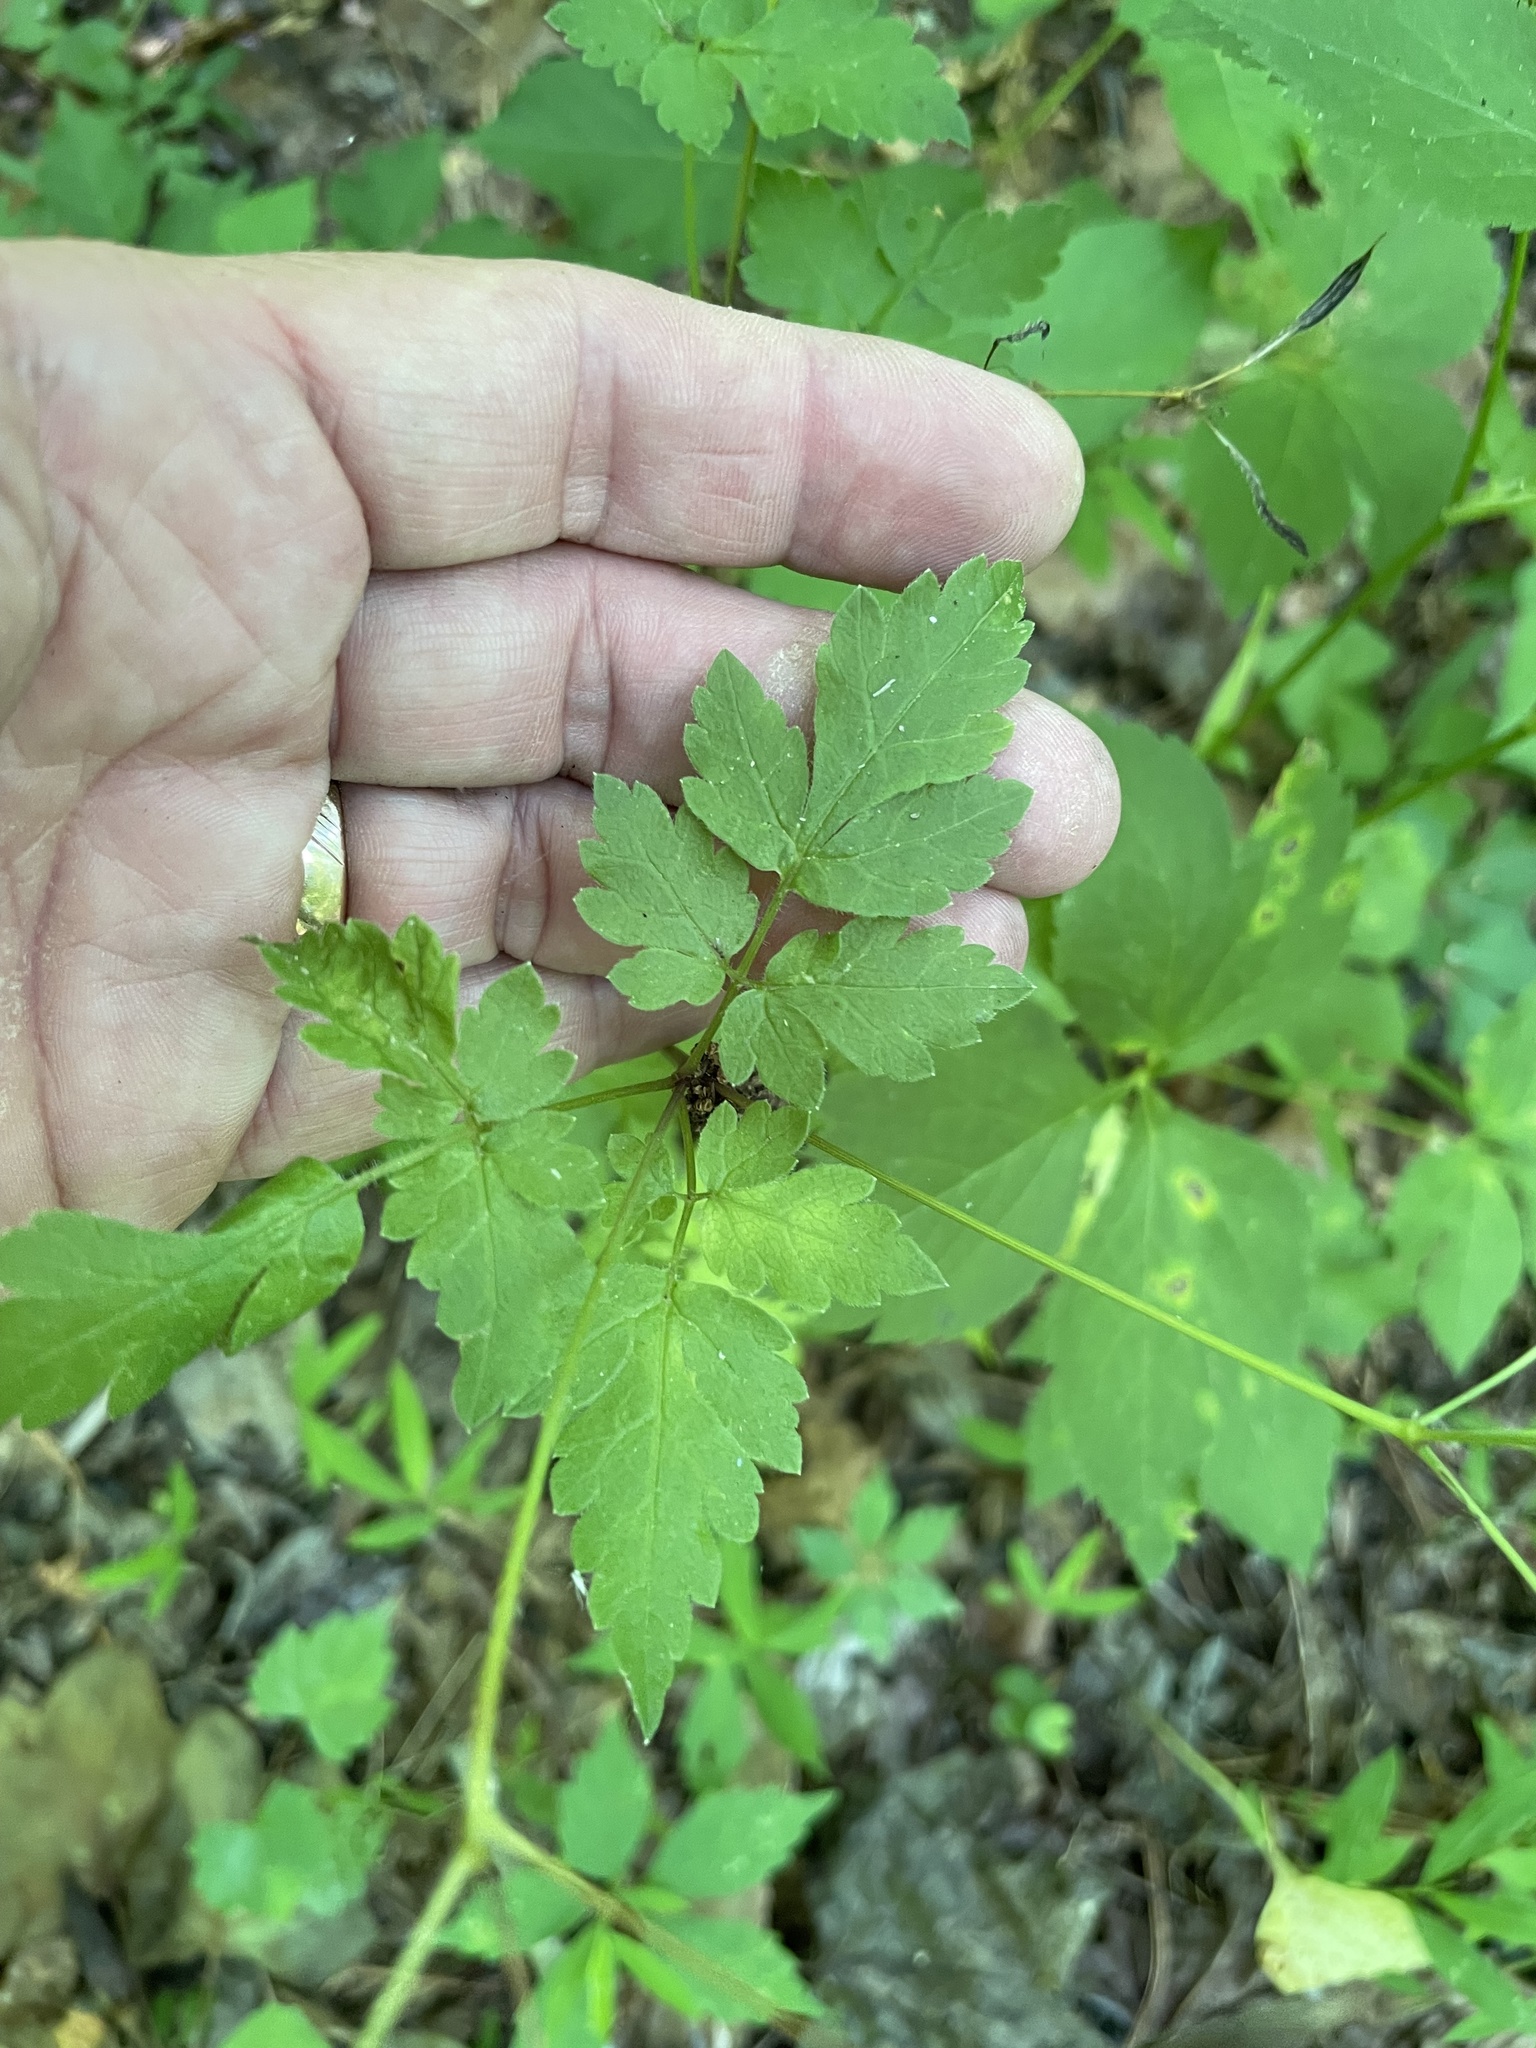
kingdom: Plantae
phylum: Tracheophyta
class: Magnoliopsida
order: Apiales
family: Apiaceae
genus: Osmorhiza
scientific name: Osmorhiza longistylis
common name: Smooth sweet cicely
